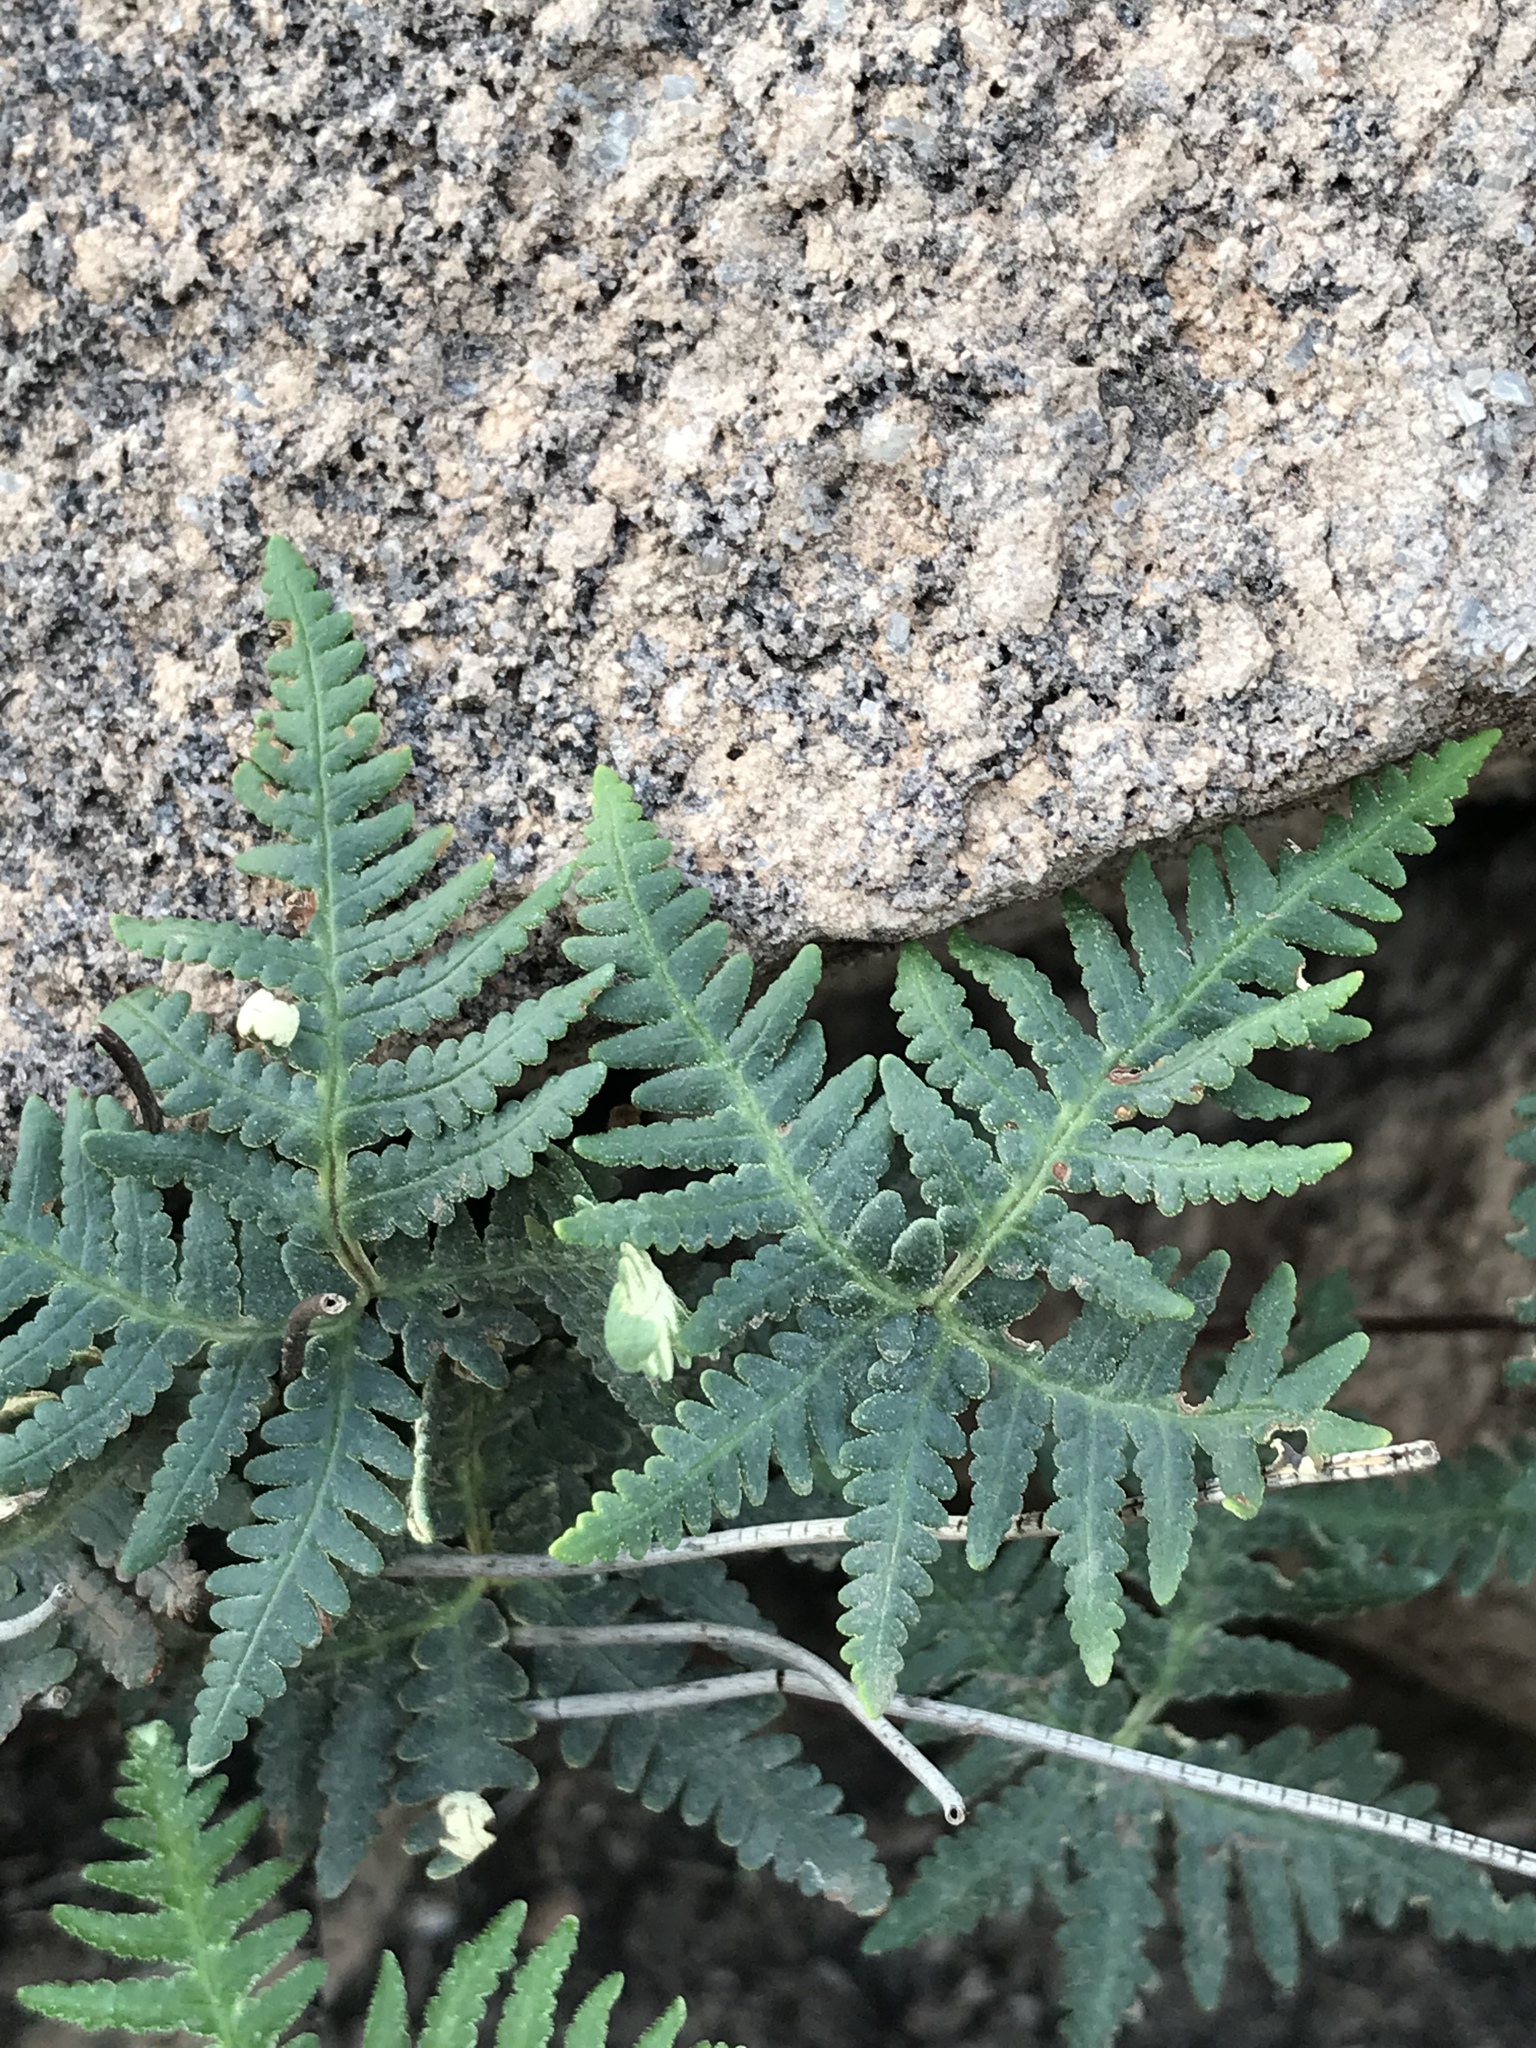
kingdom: Plantae
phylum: Tracheophyta
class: Polypodiopsida
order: Polypodiales
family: Pteridaceae
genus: Notholaena
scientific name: Notholaena standleyi
